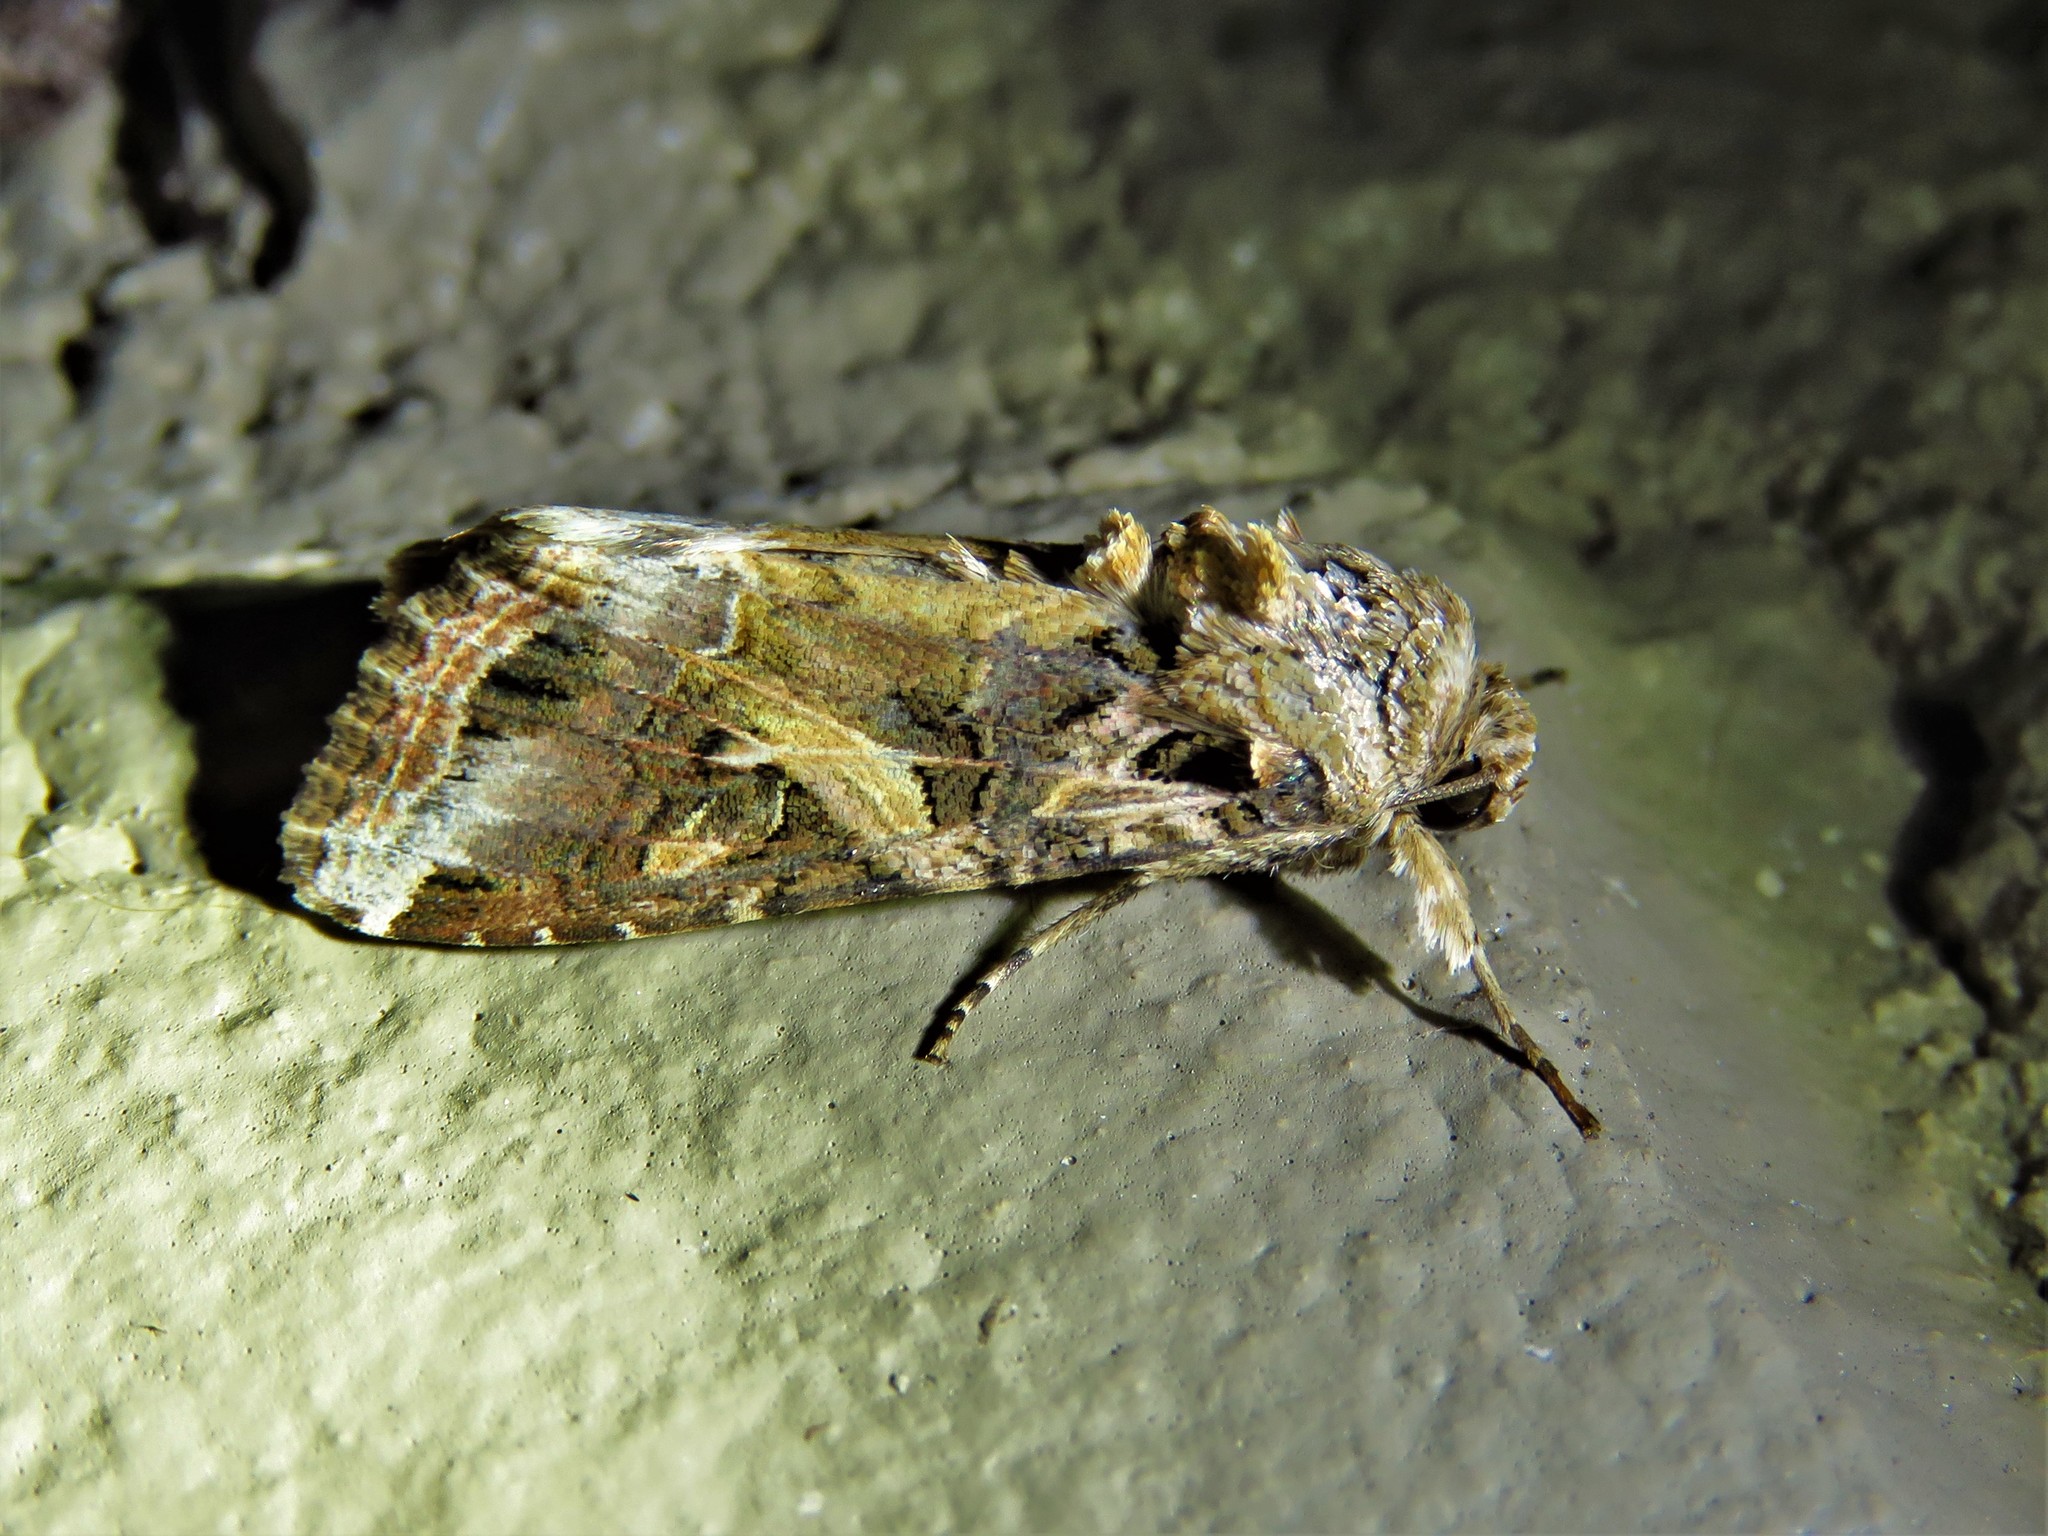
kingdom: Animalia
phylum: Arthropoda
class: Insecta
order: Lepidoptera
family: Noctuidae
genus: Spodoptera
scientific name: Spodoptera ornithogalli
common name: Yellow-striped armyworm
